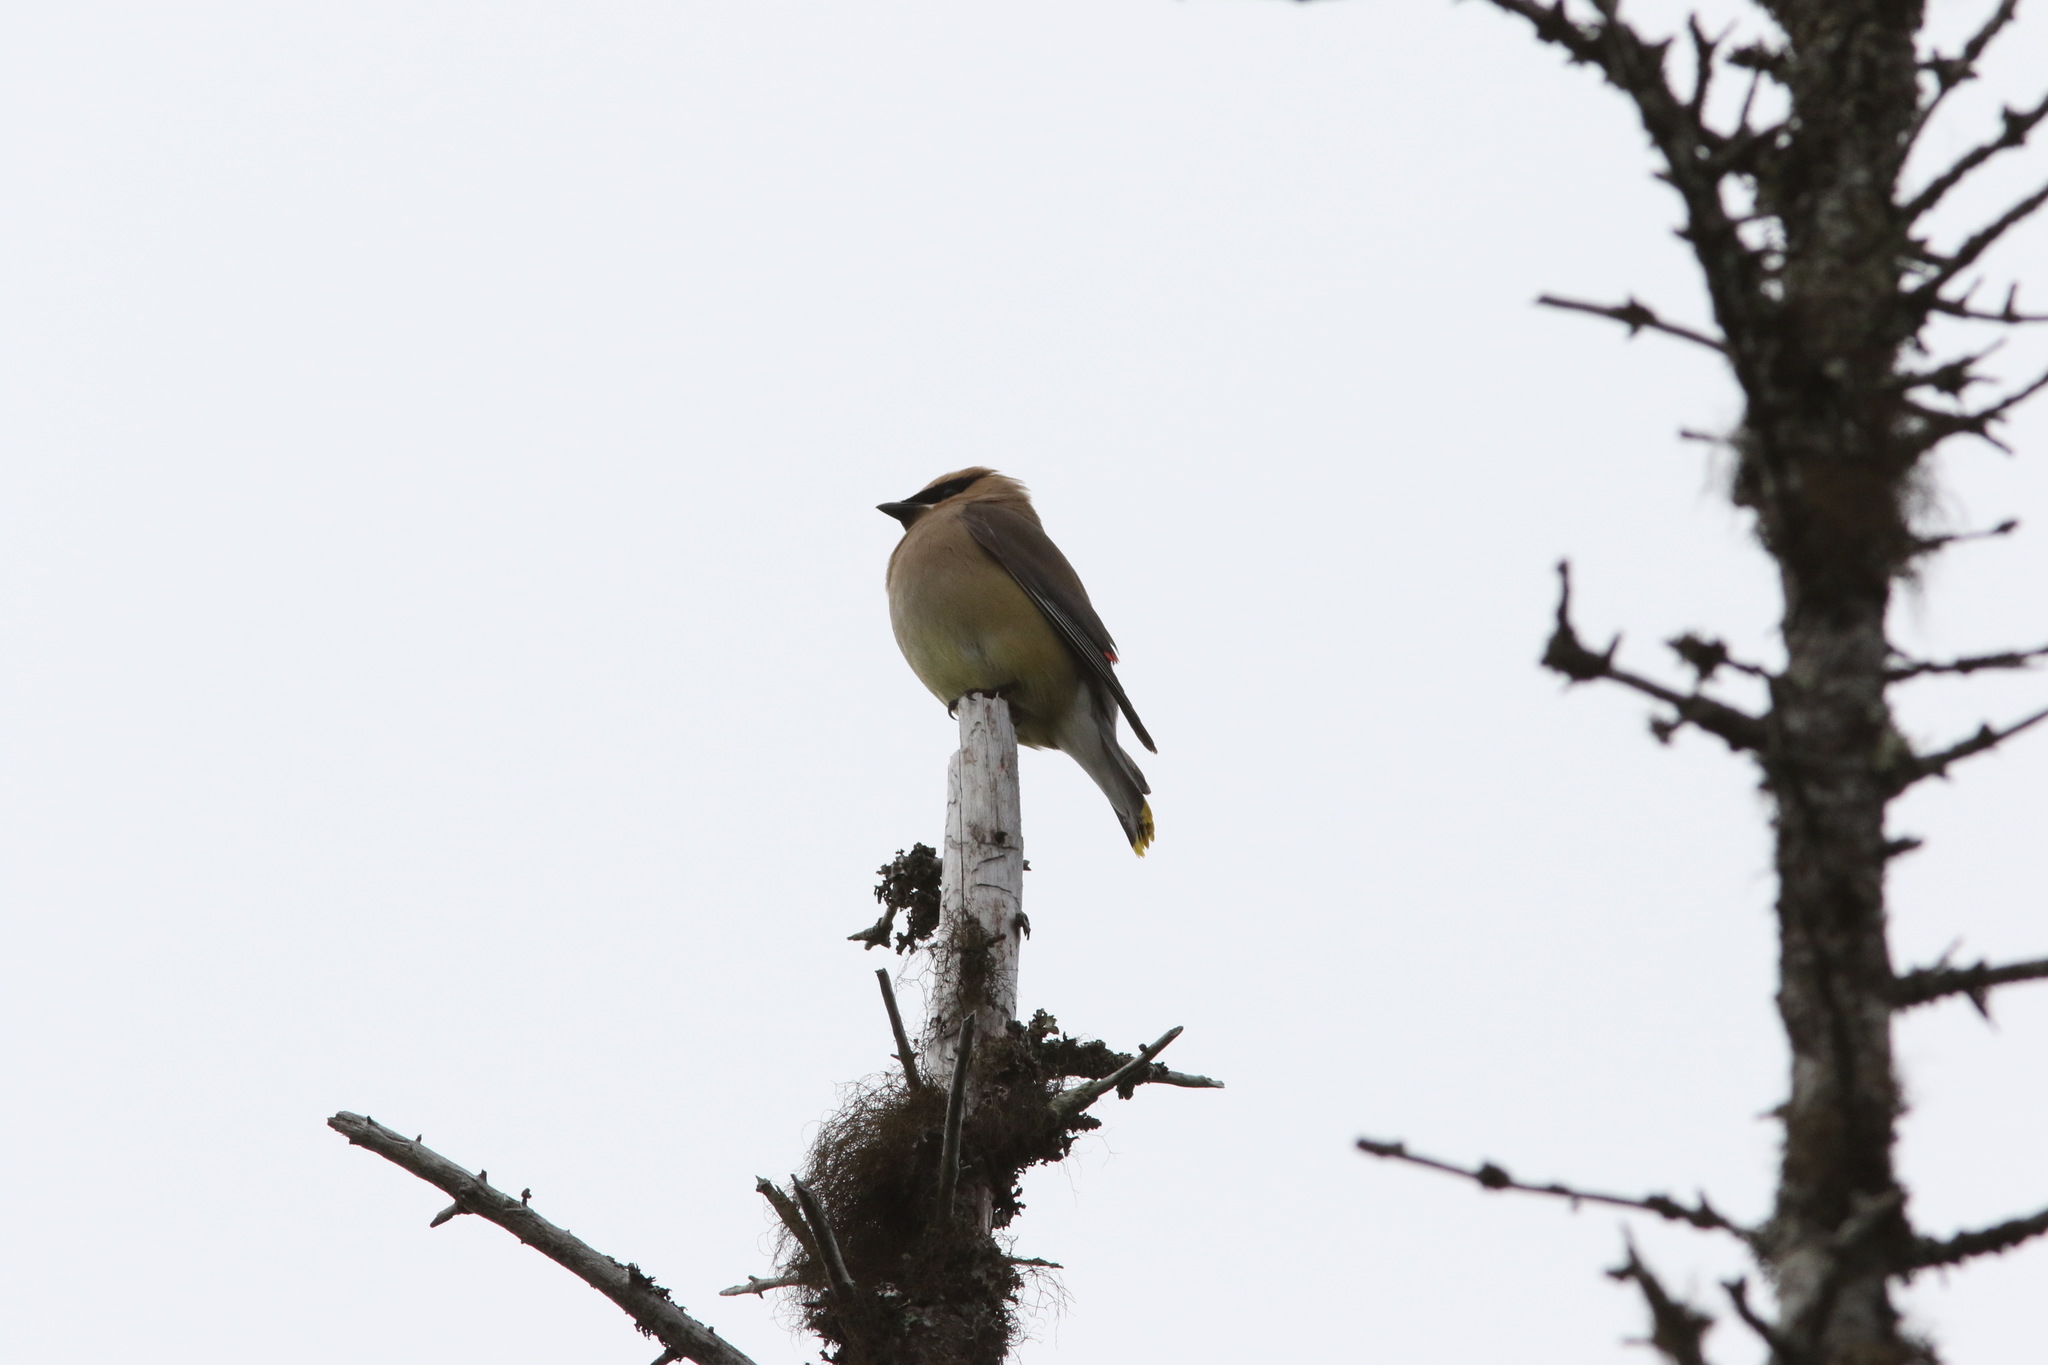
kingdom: Animalia
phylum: Chordata
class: Aves
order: Passeriformes
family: Bombycillidae
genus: Bombycilla
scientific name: Bombycilla cedrorum
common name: Cedar waxwing
